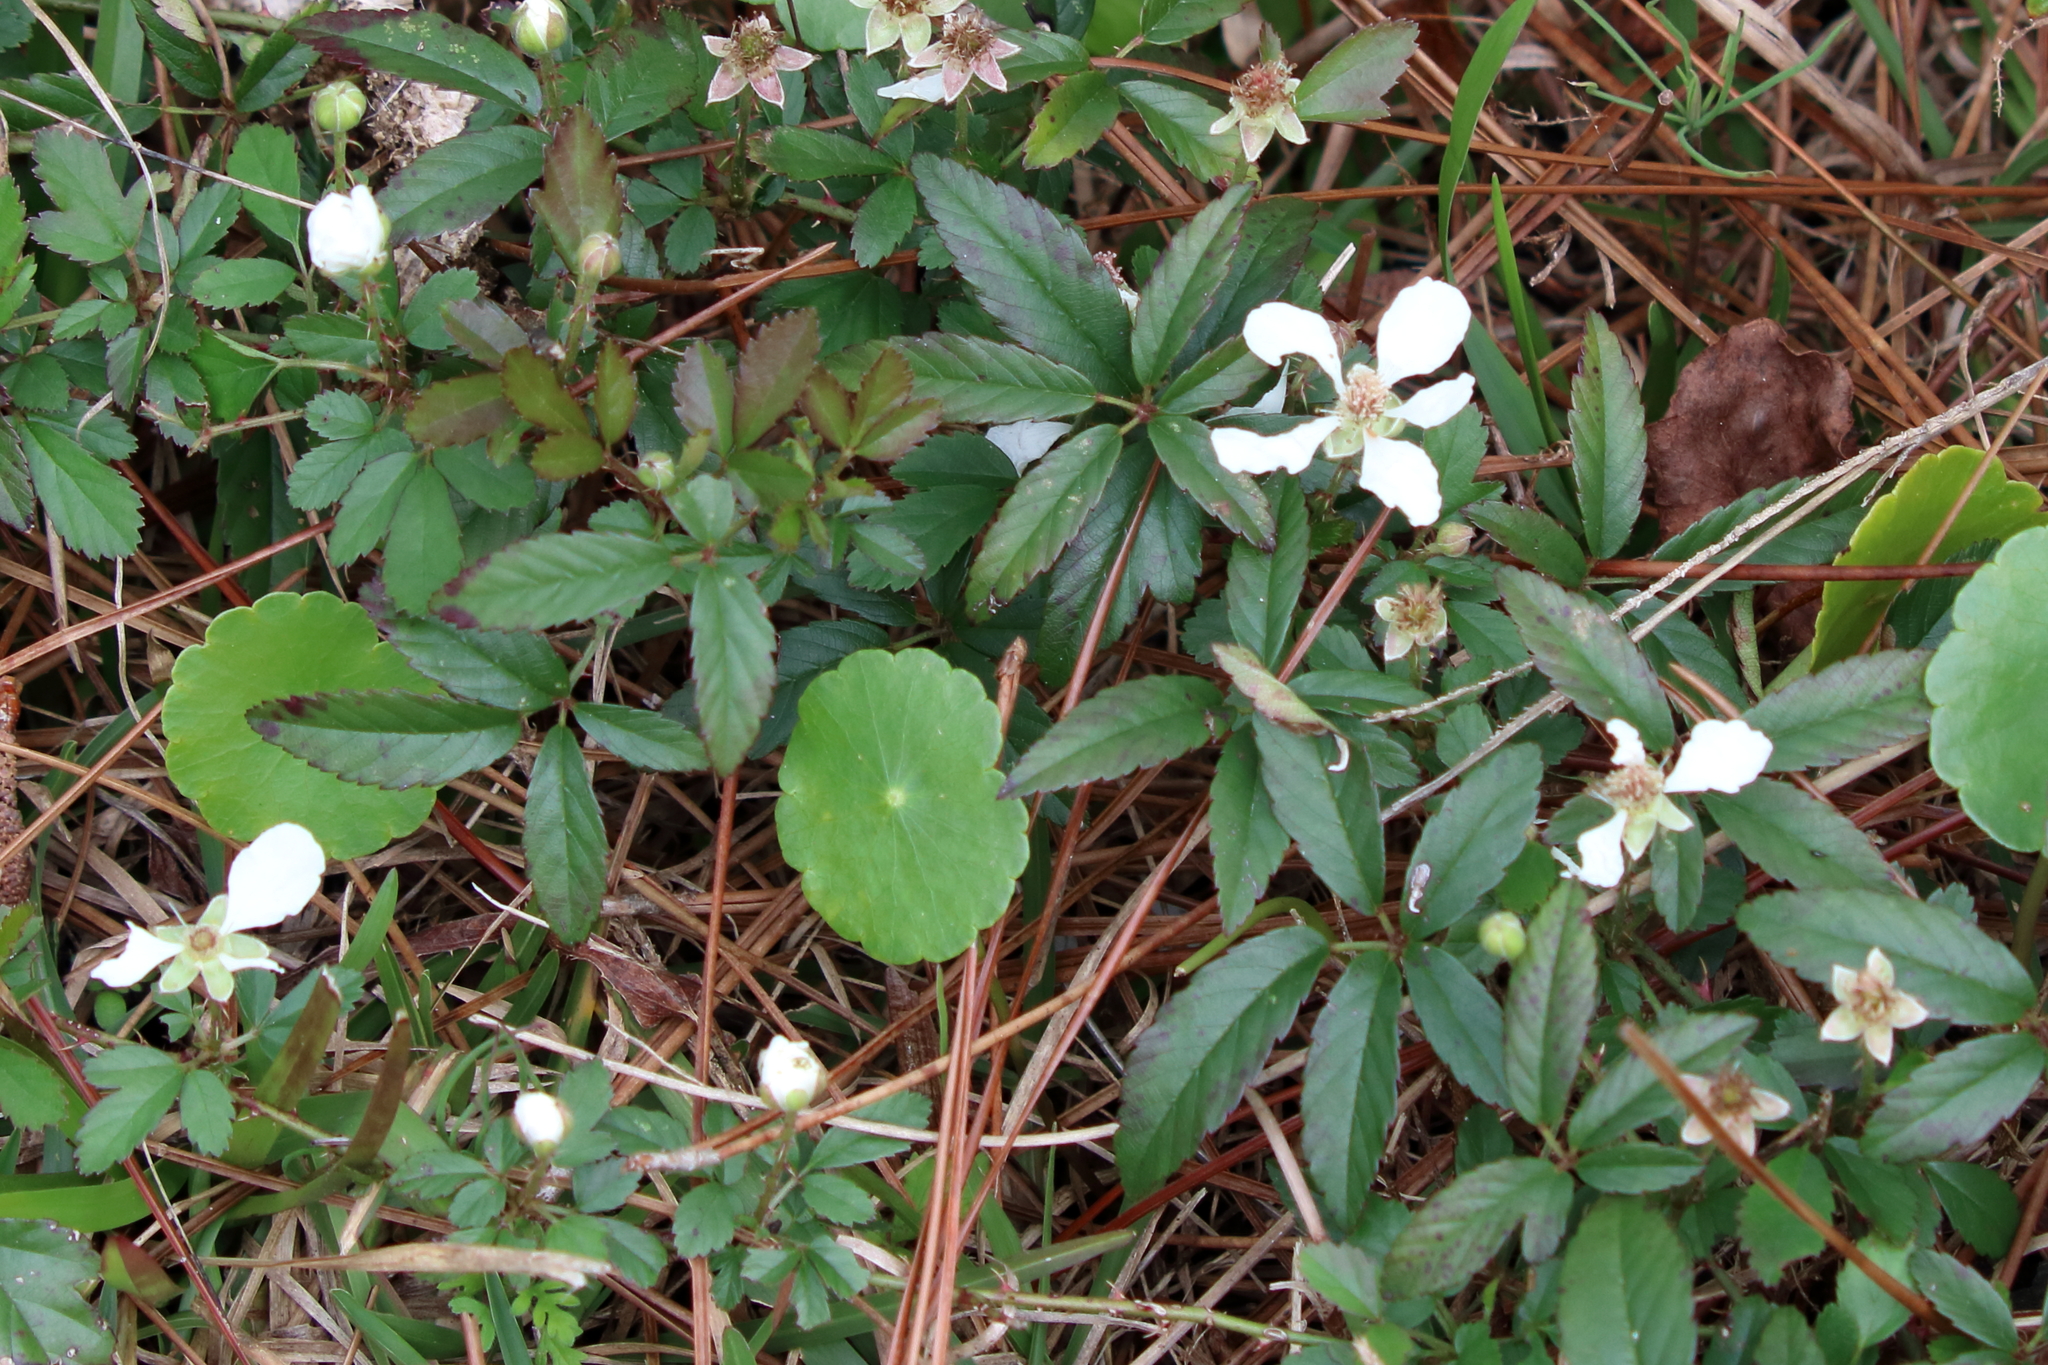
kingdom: Plantae
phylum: Tracheophyta
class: Magnoliopsida
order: Rosales
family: Rosaceae
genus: Rubus
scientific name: Rubus trivialis
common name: Southern dewberry
